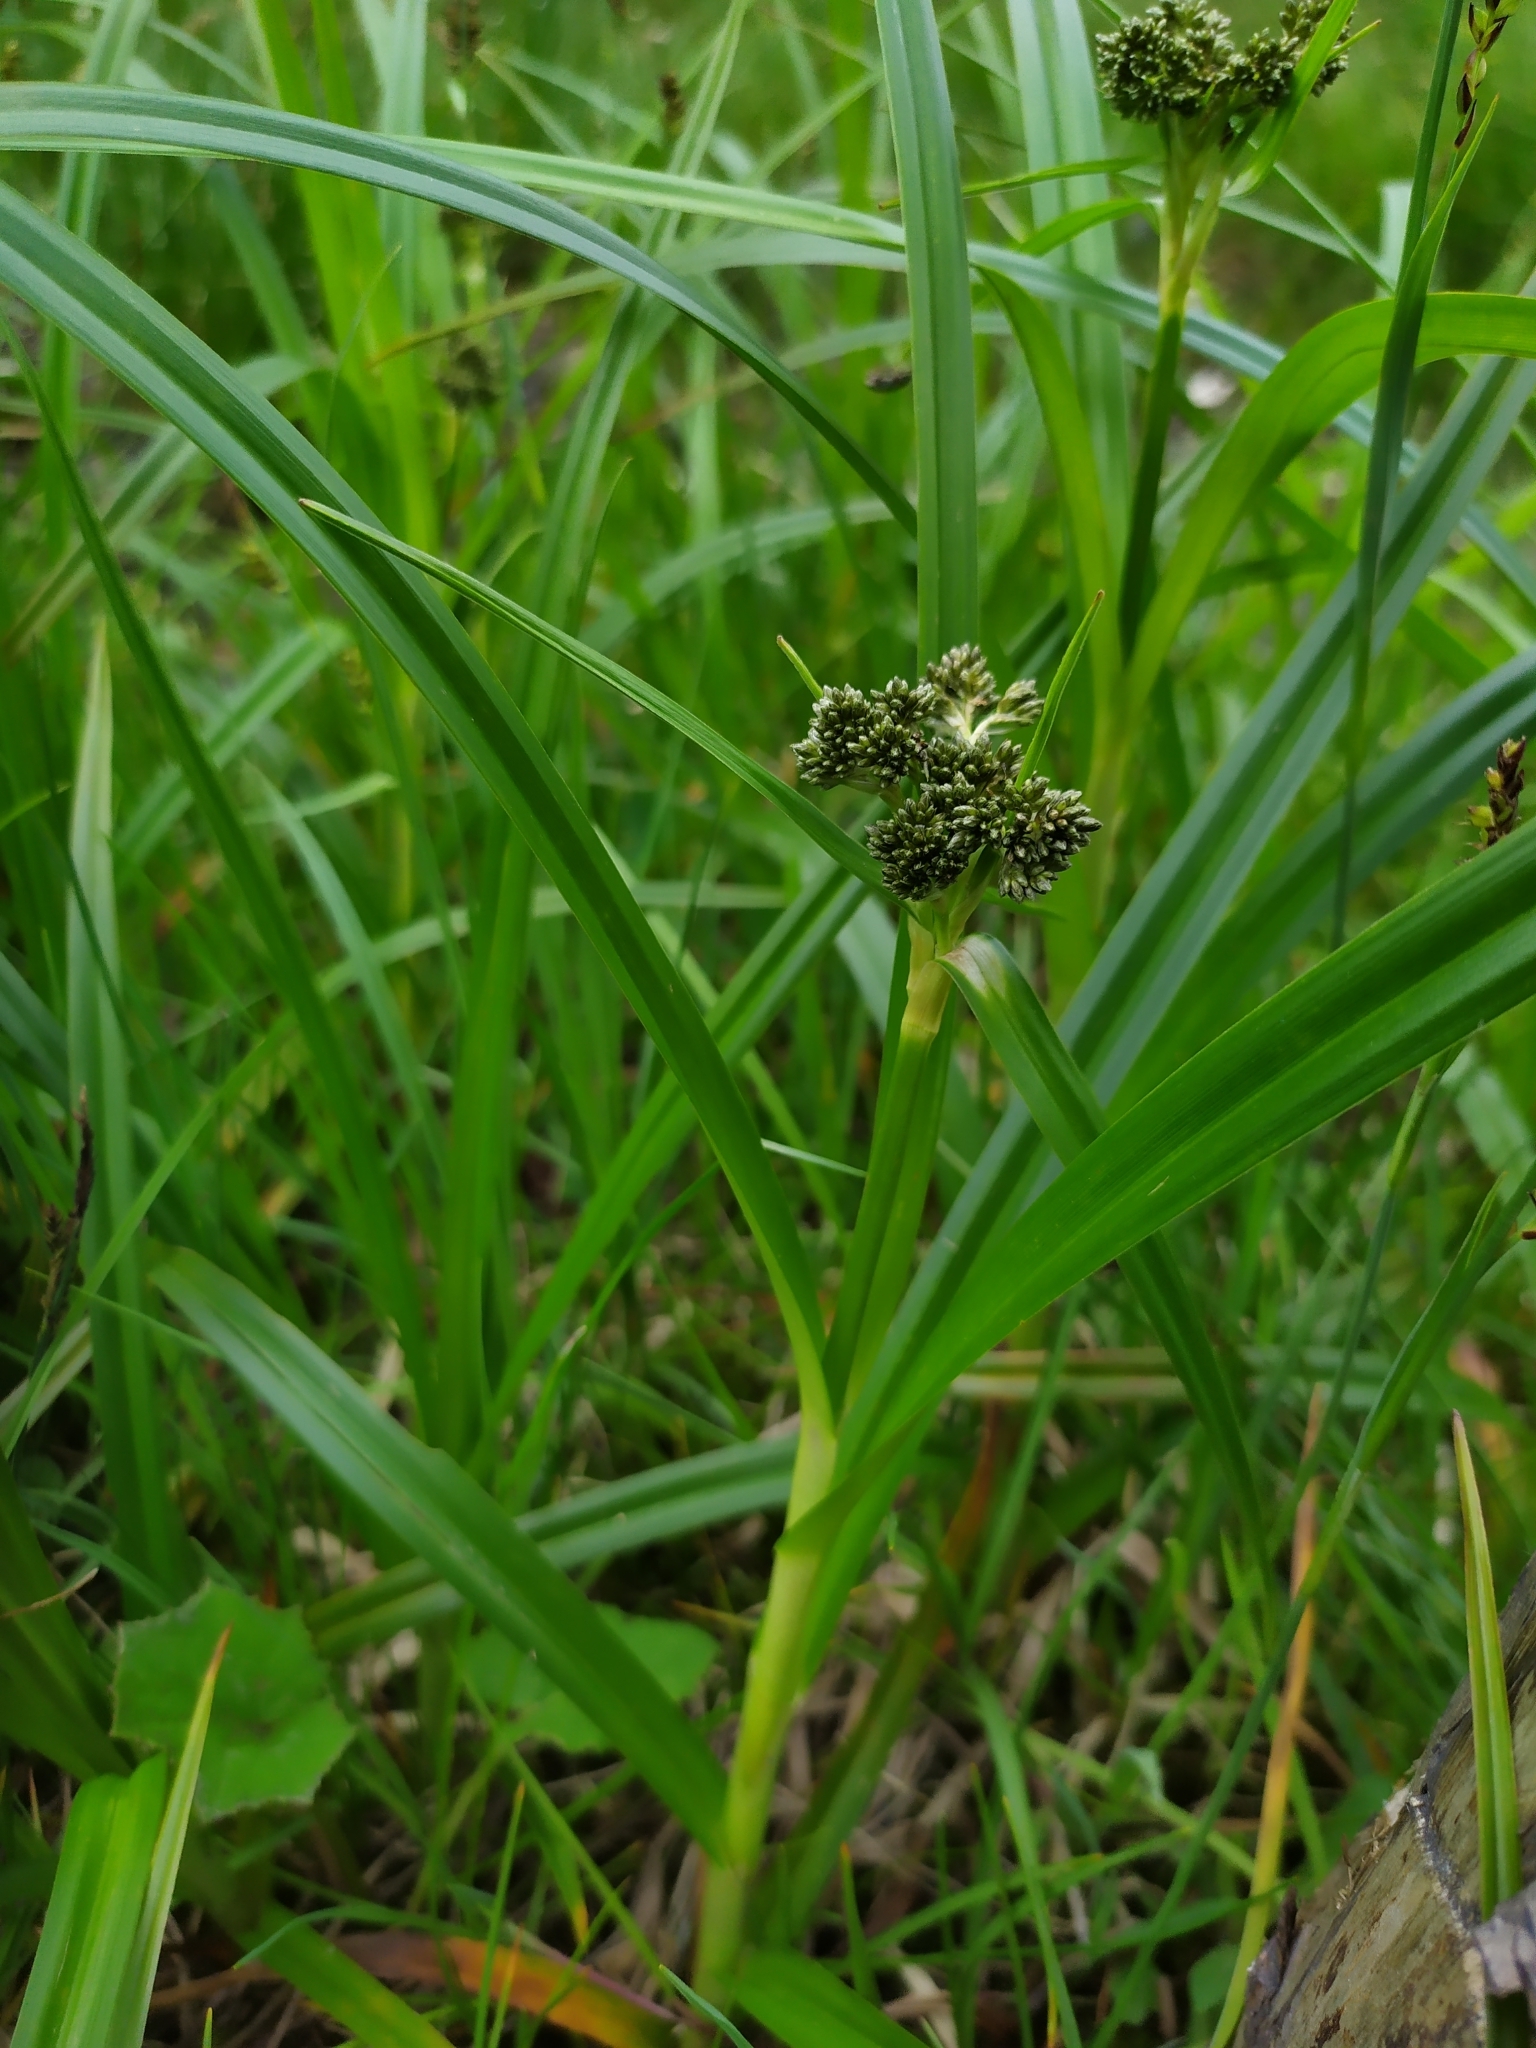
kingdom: Plantae
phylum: Tracheophyta
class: Liliopsida
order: Poales
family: Cyperaceae
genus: Scirpus
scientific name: Scirpus sylvaticus
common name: Wood club-rush
